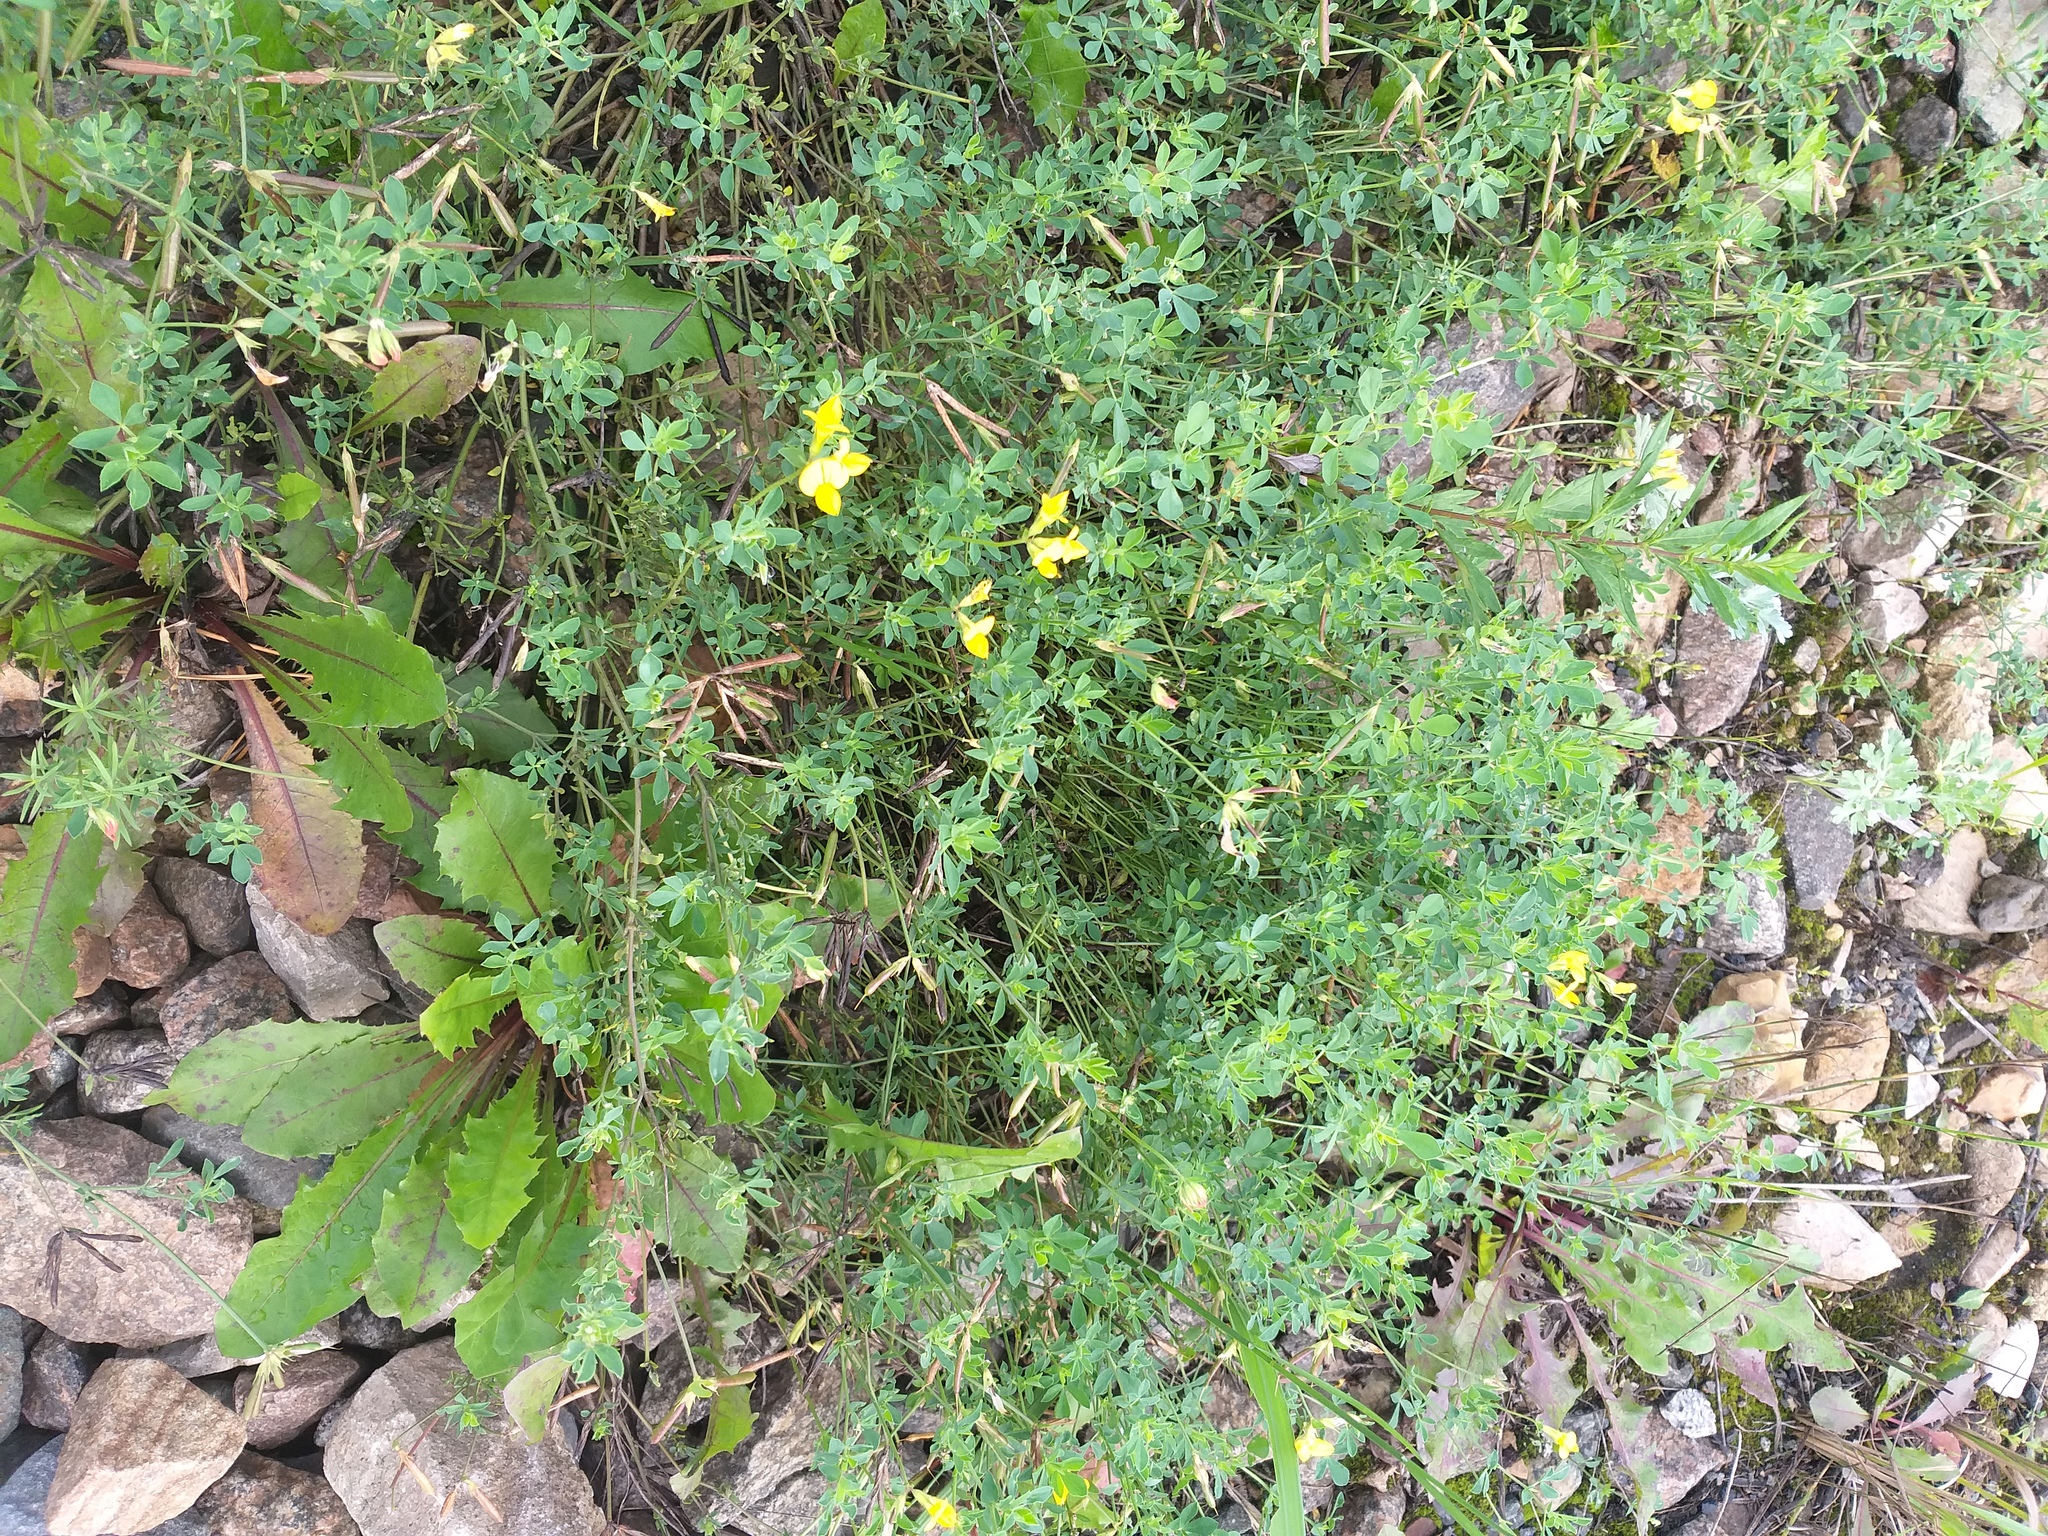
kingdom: Plantae
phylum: Tracheophyta
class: Magnoliopsida
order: Fabales
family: Fabaceae
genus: Lotus
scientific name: Lotus corniculatus
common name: Common bird's-foot-trefoil
